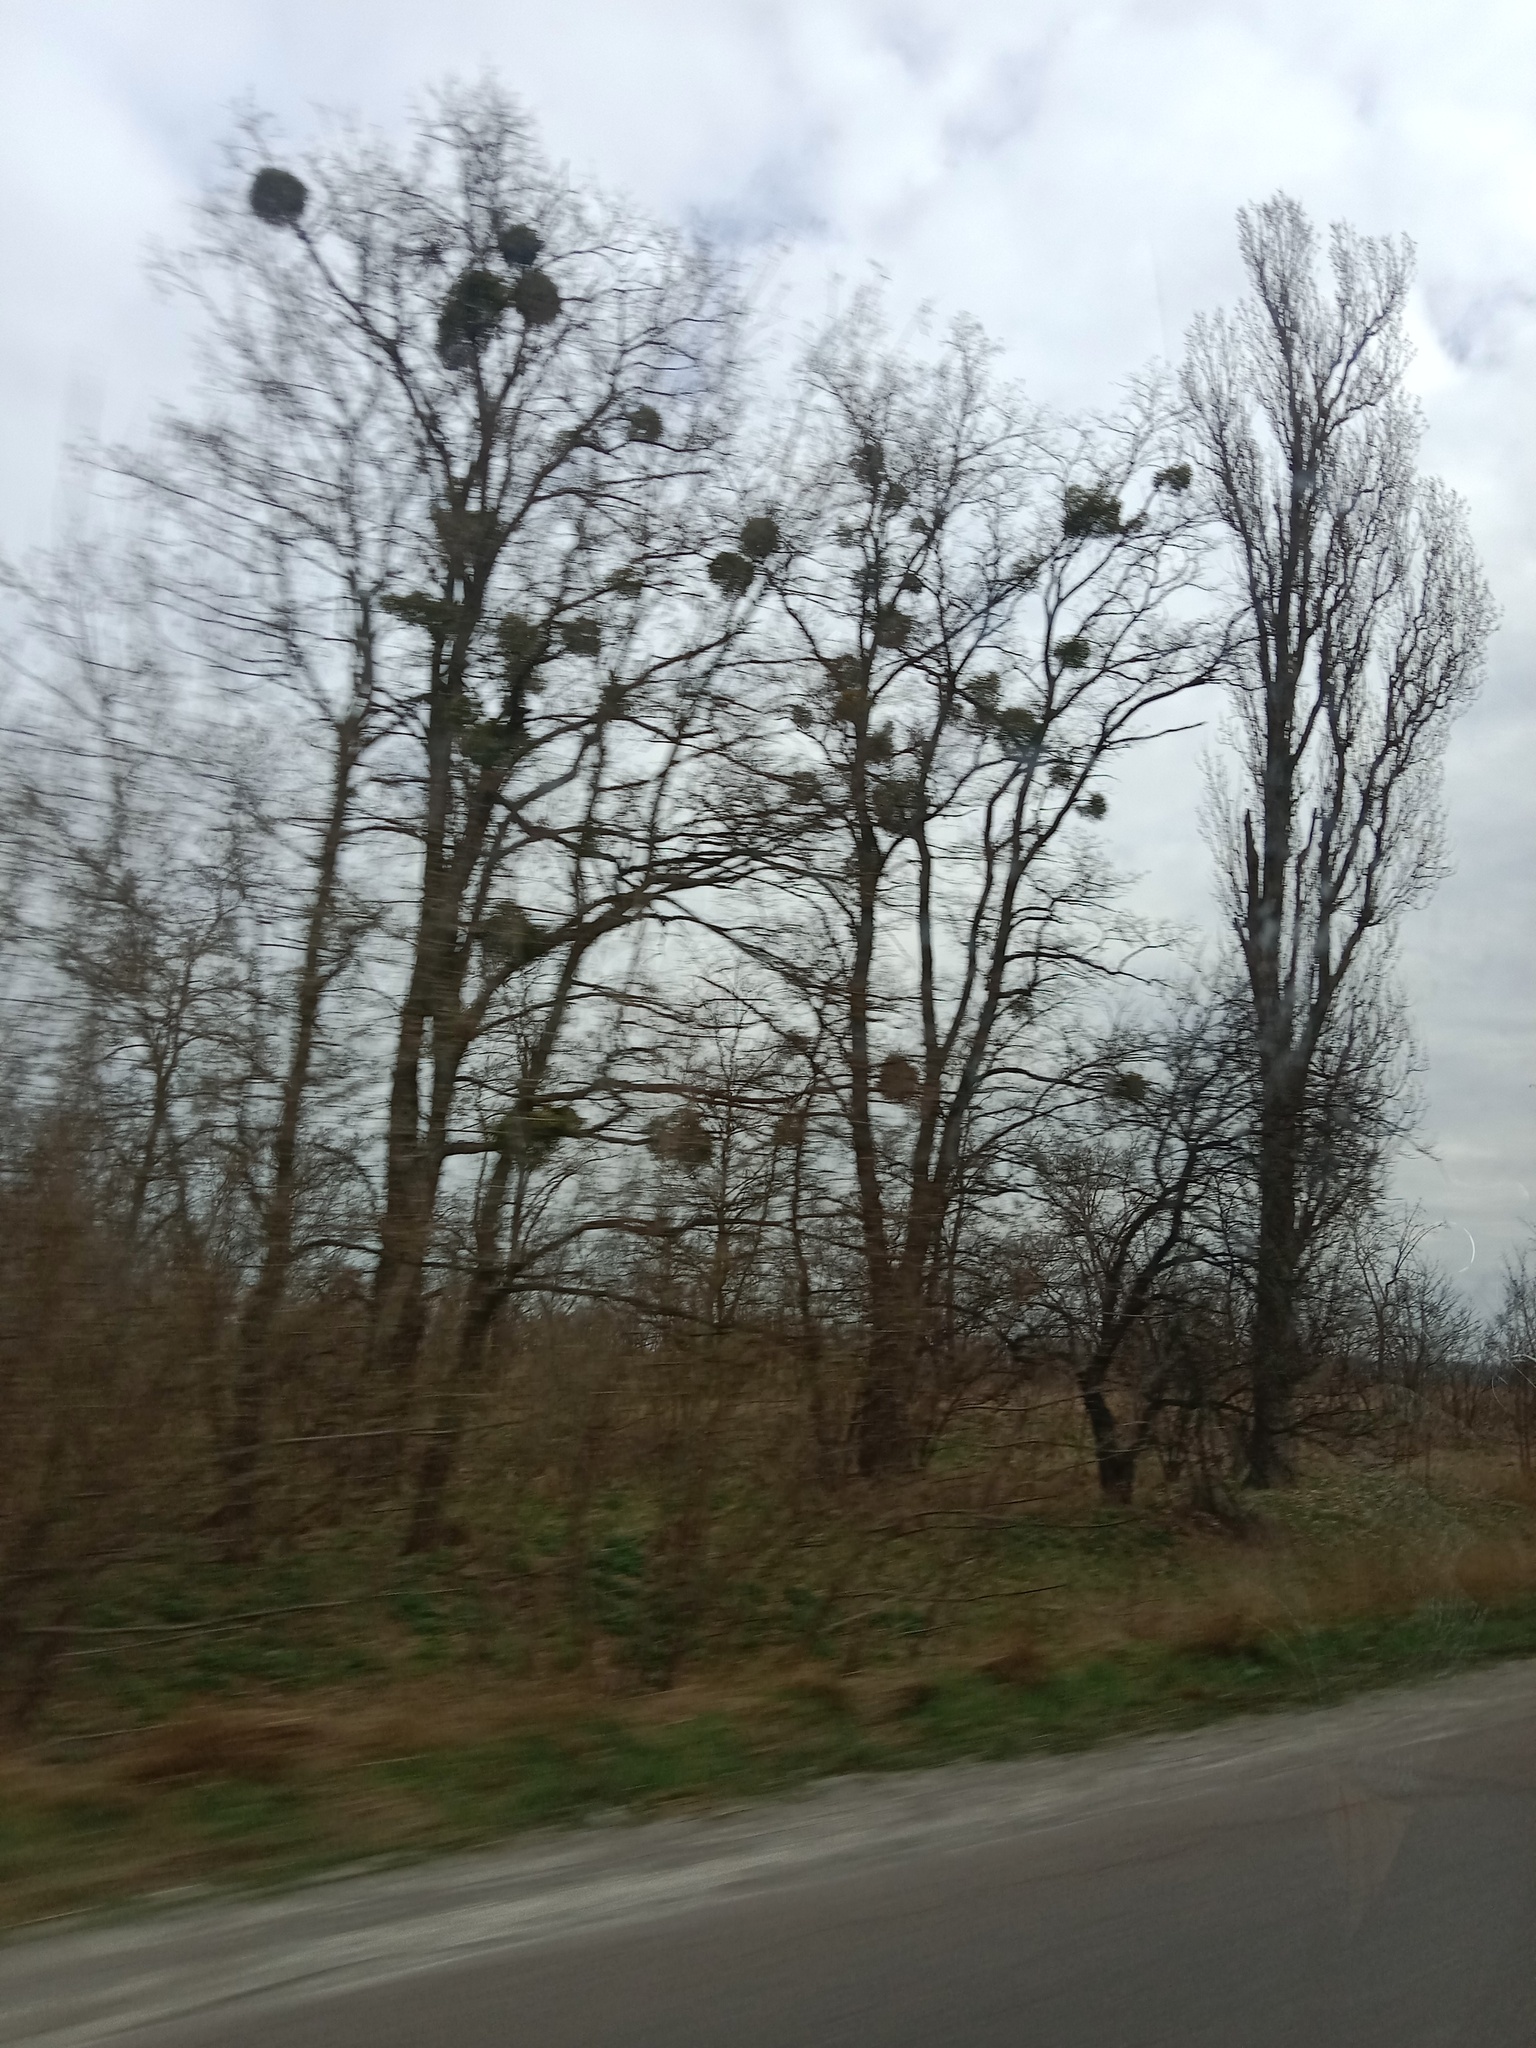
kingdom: Plantae
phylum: Tracheophyta
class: Magnoliopsida
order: Santalales
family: Viscaceae
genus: Viscum
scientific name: Viscum album
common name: Mistletoe
